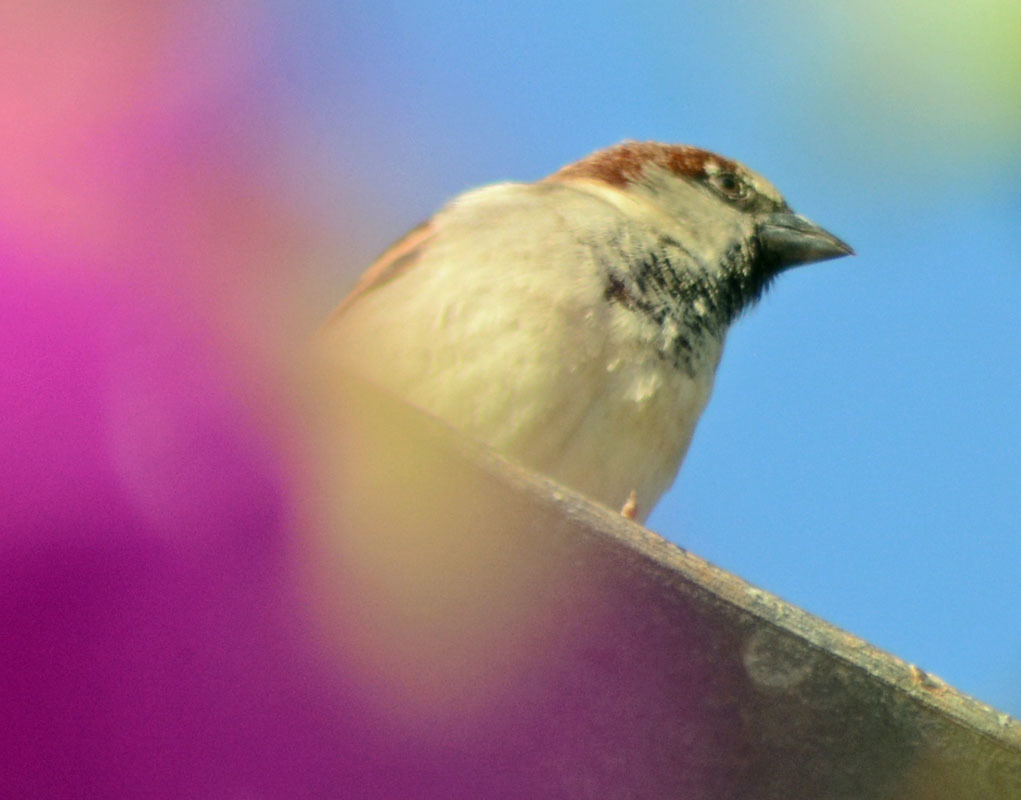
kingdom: Animalia
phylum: Chordata
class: Aves
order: Passeriformes
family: Passeridae
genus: Passer
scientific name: Passer domesticus
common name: House sparrow
